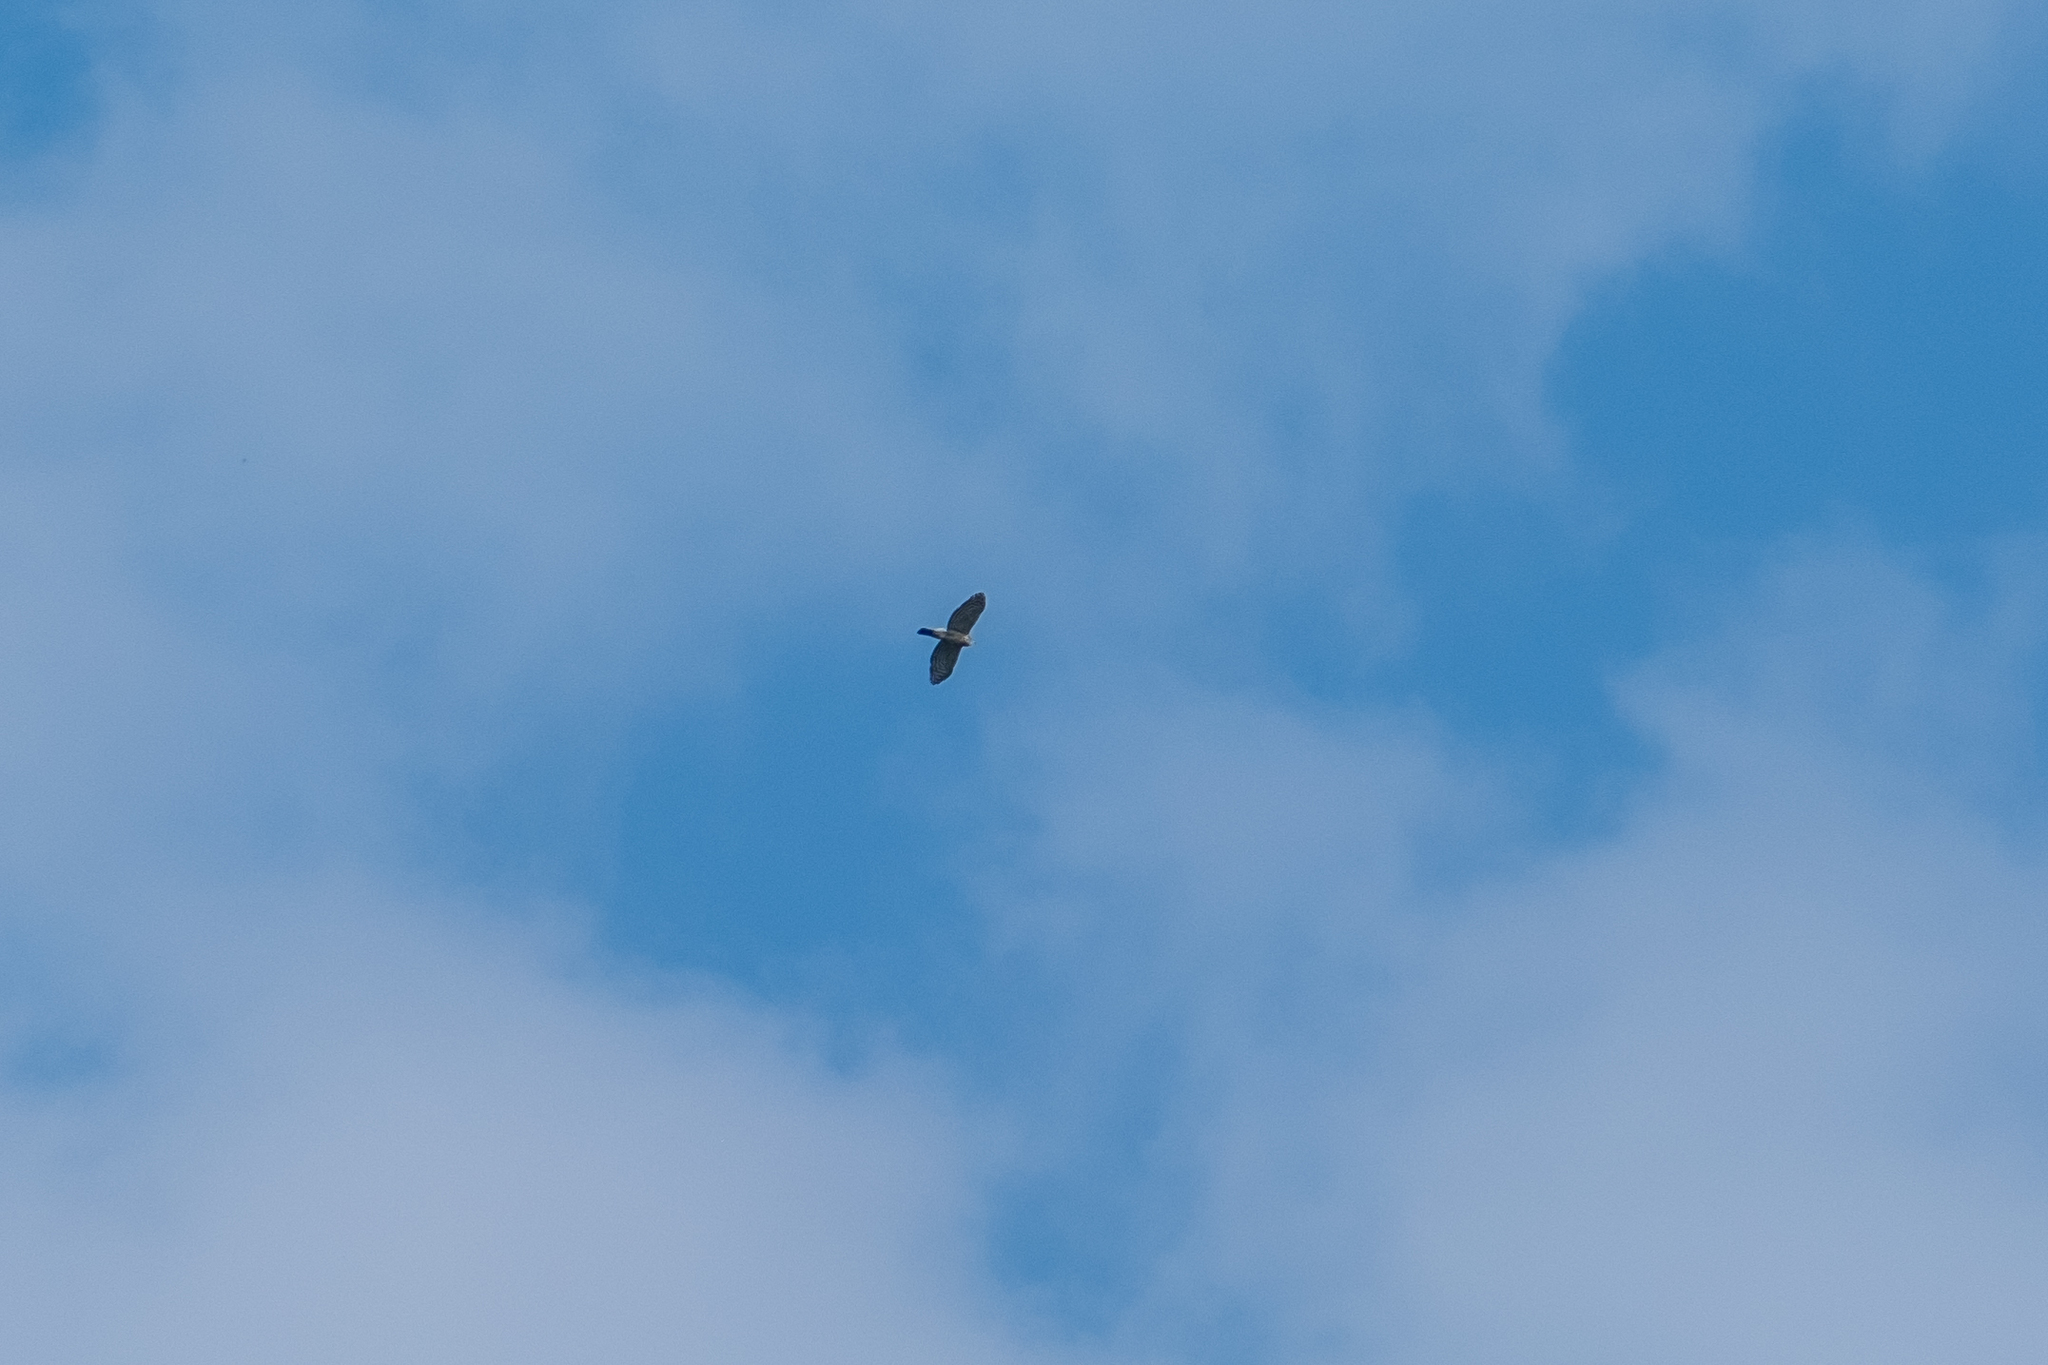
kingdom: Animalia
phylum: Chordata
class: Aves
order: Accipitriformes
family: Accipitridae
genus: Accipiter
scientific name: Accipiter trivirgatus
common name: Crested goshawk
